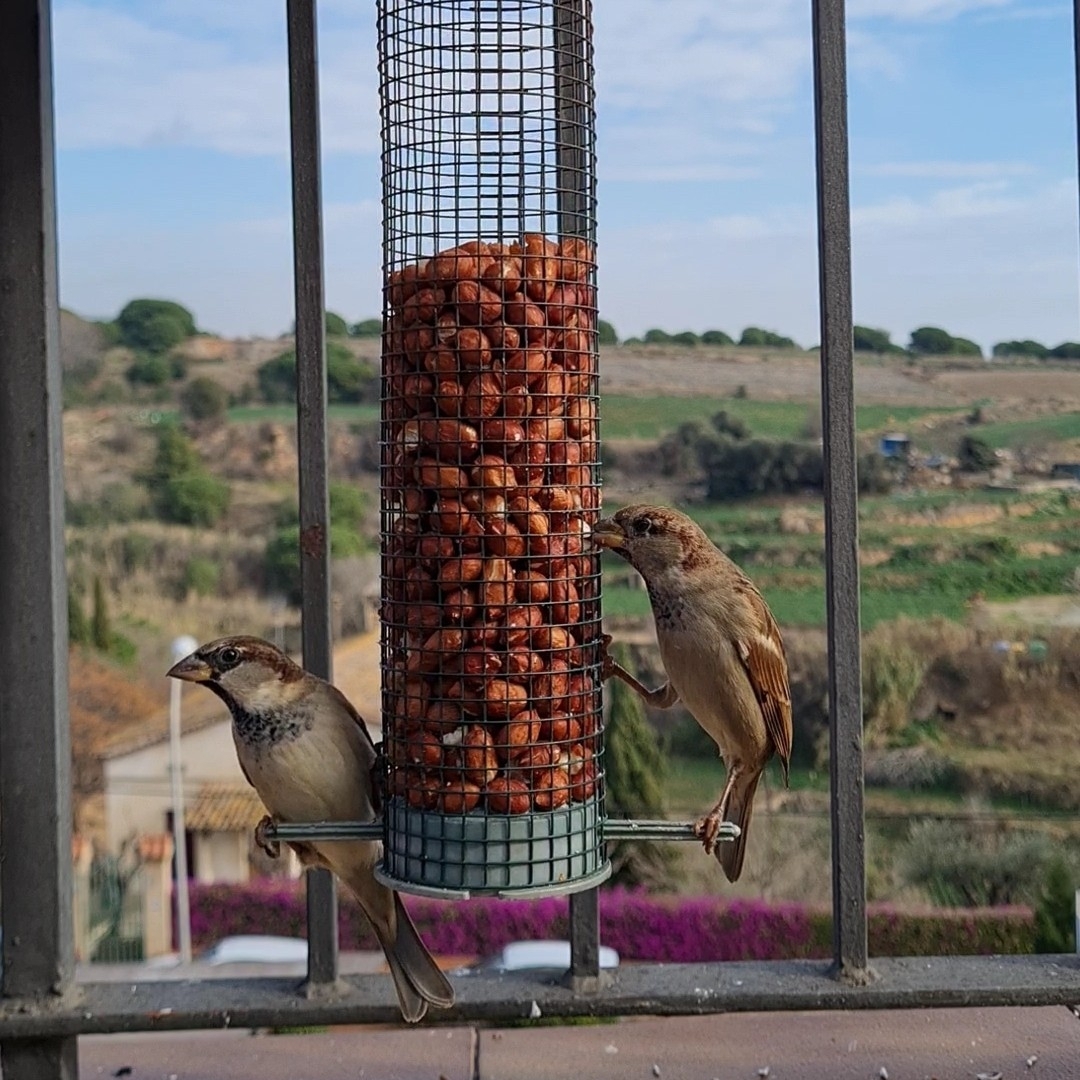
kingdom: Animalia
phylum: Chordata
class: Aves
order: Passeriformes
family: Passeridae
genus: Passer
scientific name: Passer domesticus
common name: House sparrow
